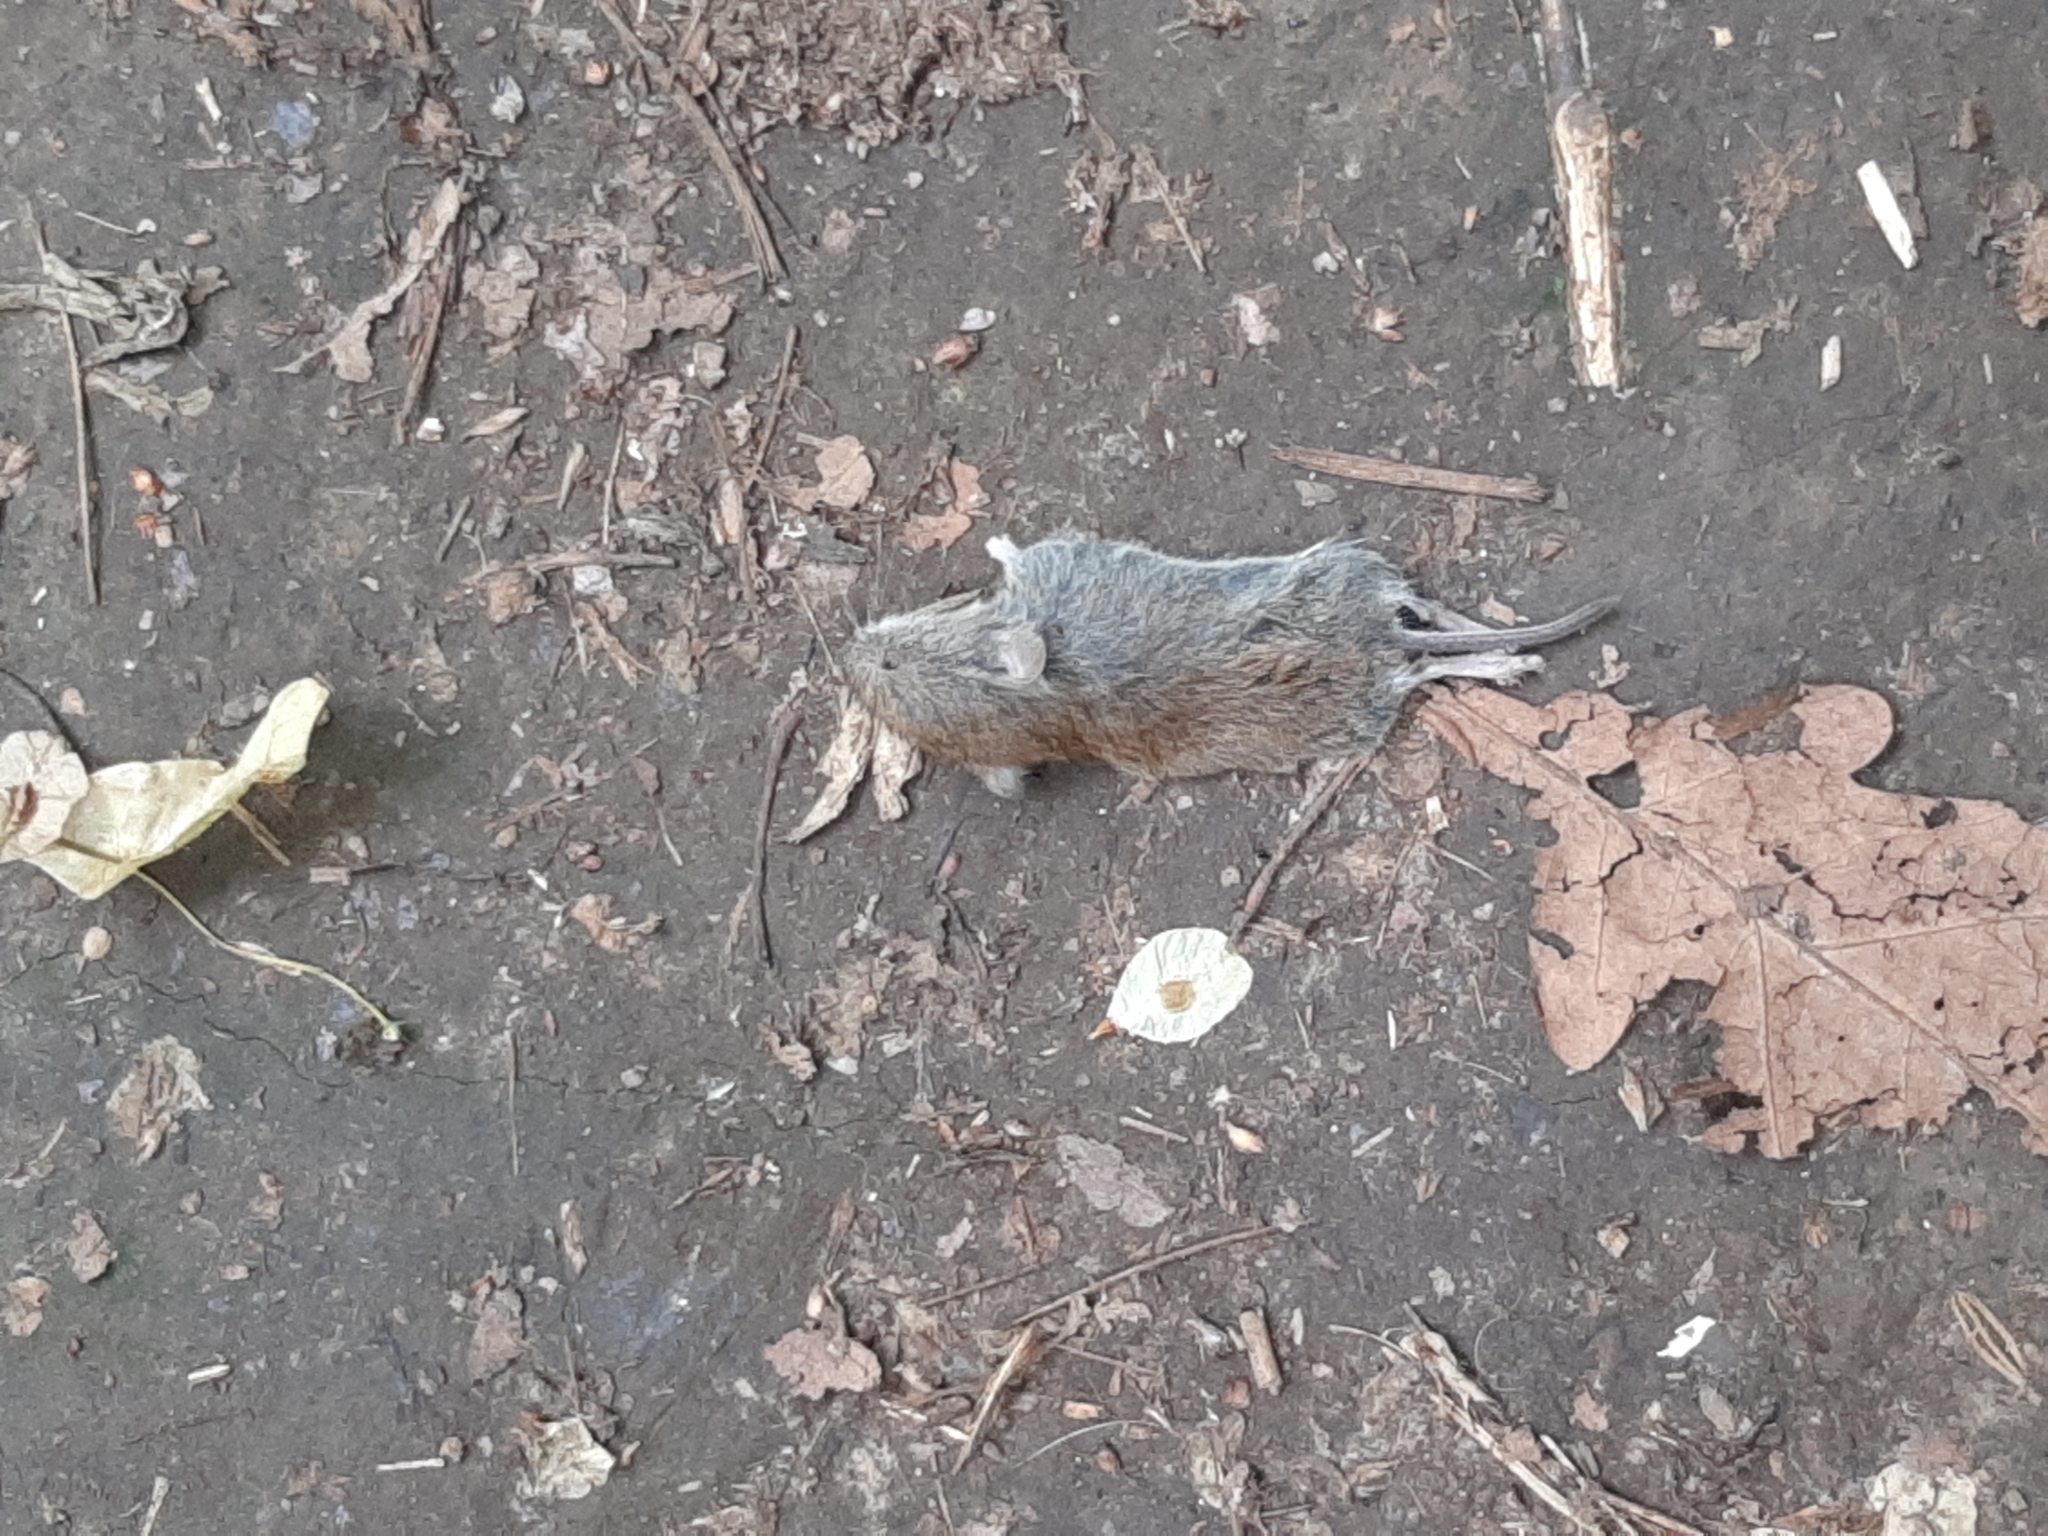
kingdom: Animalia
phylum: Chordata
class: Mammalia
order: Rodentia
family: Cricetidae
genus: Myodes
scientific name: Myodes glareolus
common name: Bank vole
